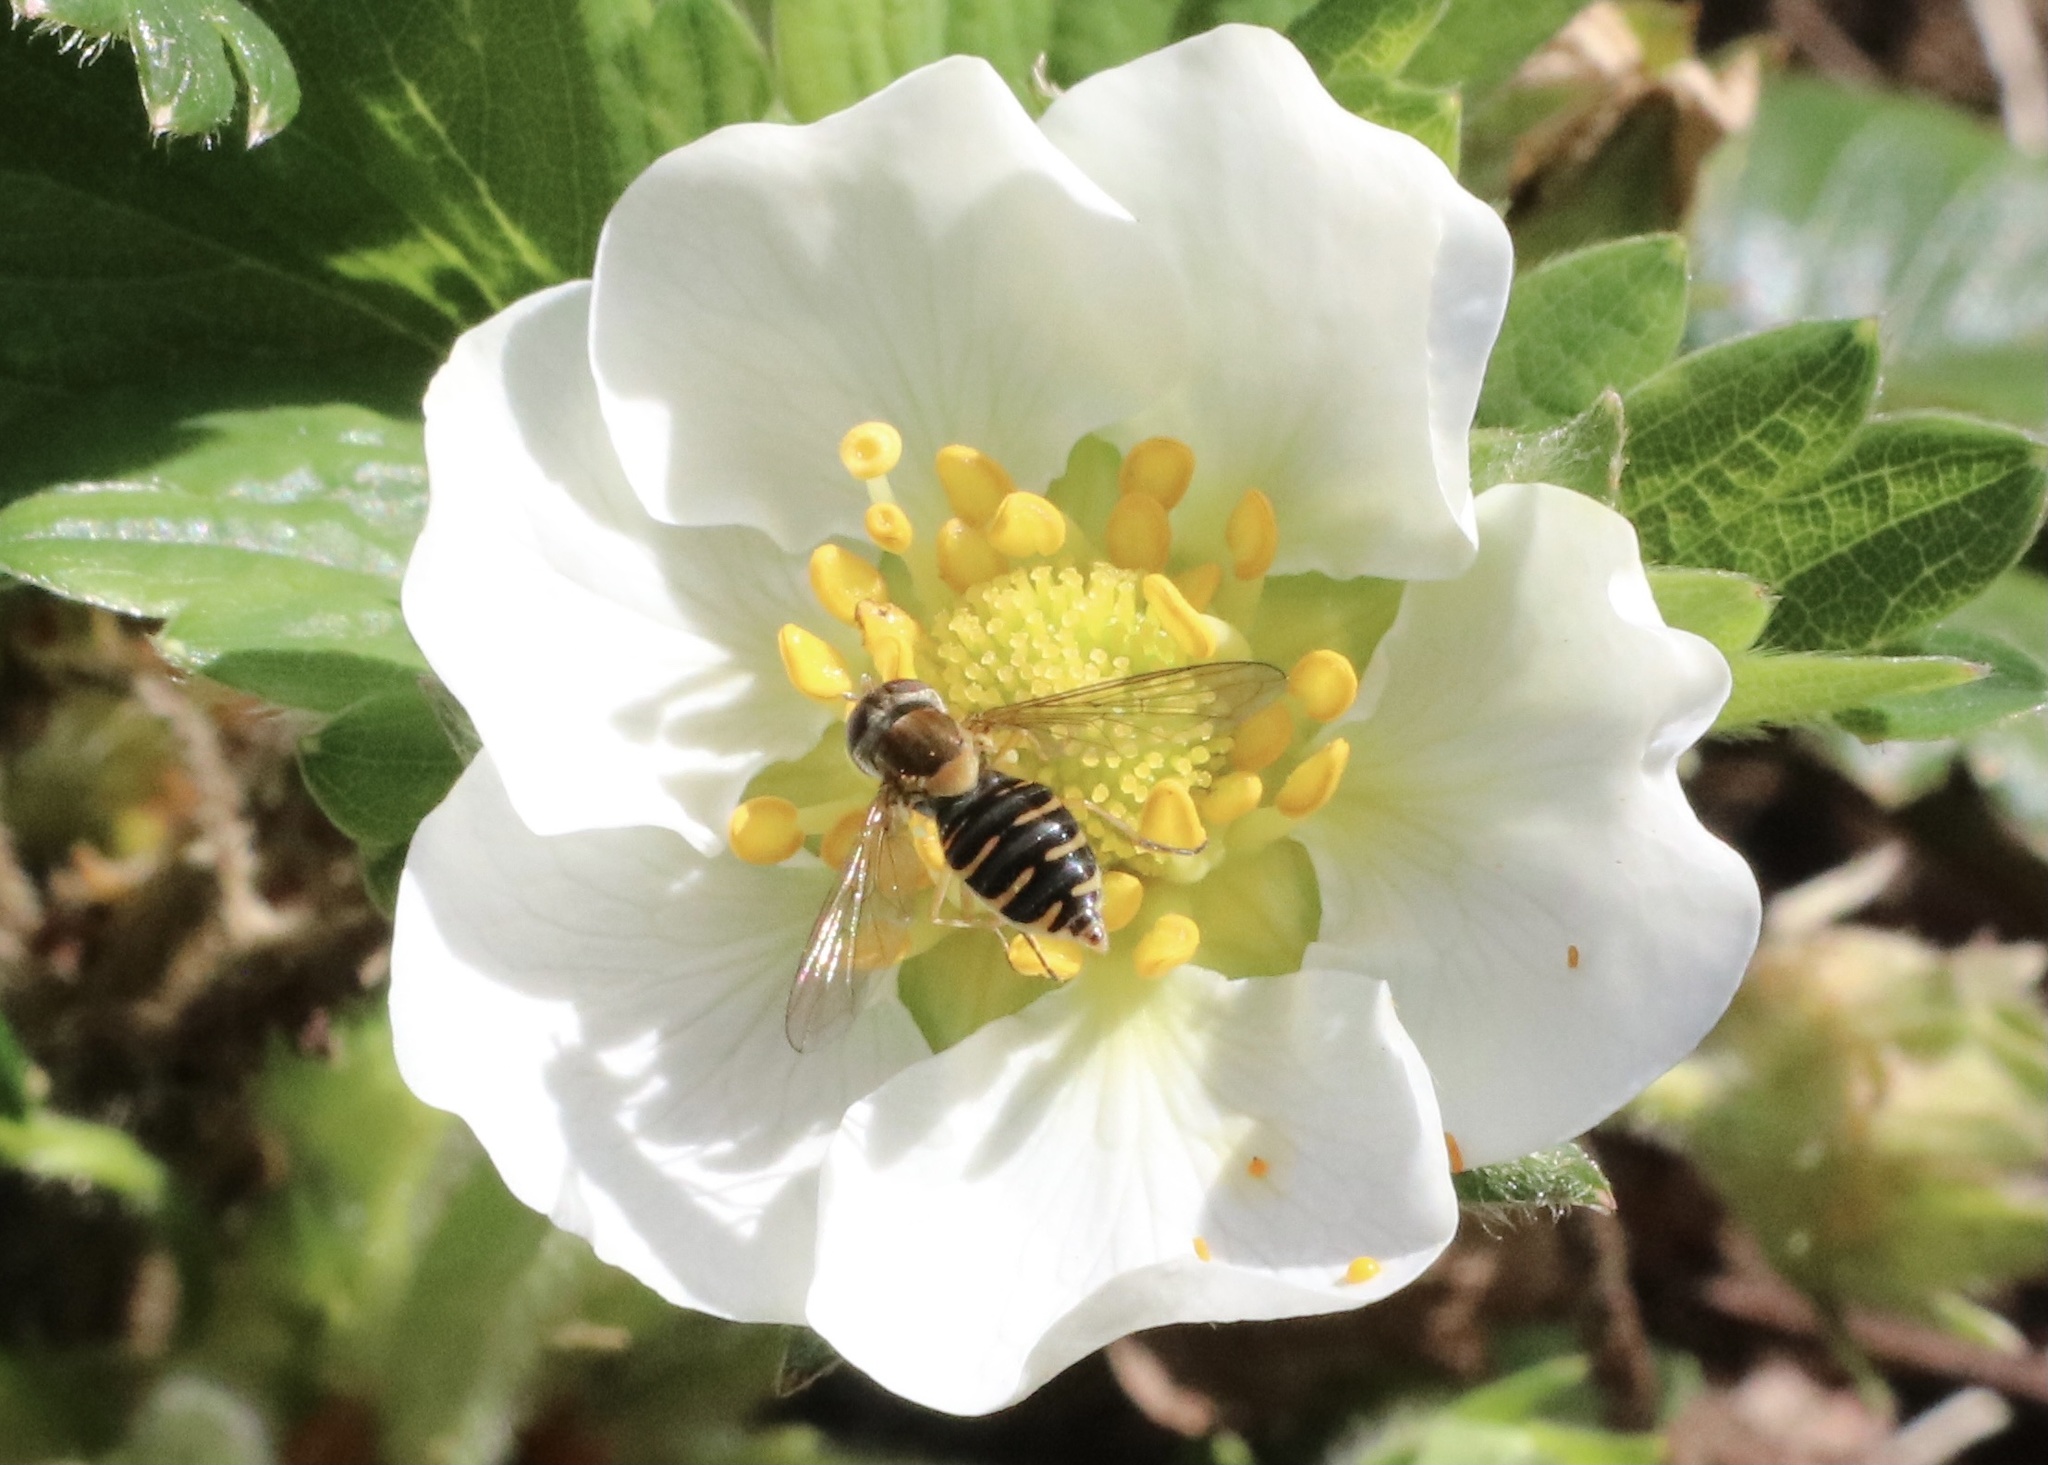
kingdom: Animalia
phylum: Arthropoda
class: Insecta
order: Diptera
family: Syrphidae
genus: Toxomerus
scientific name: Toxomerus vertebratus
